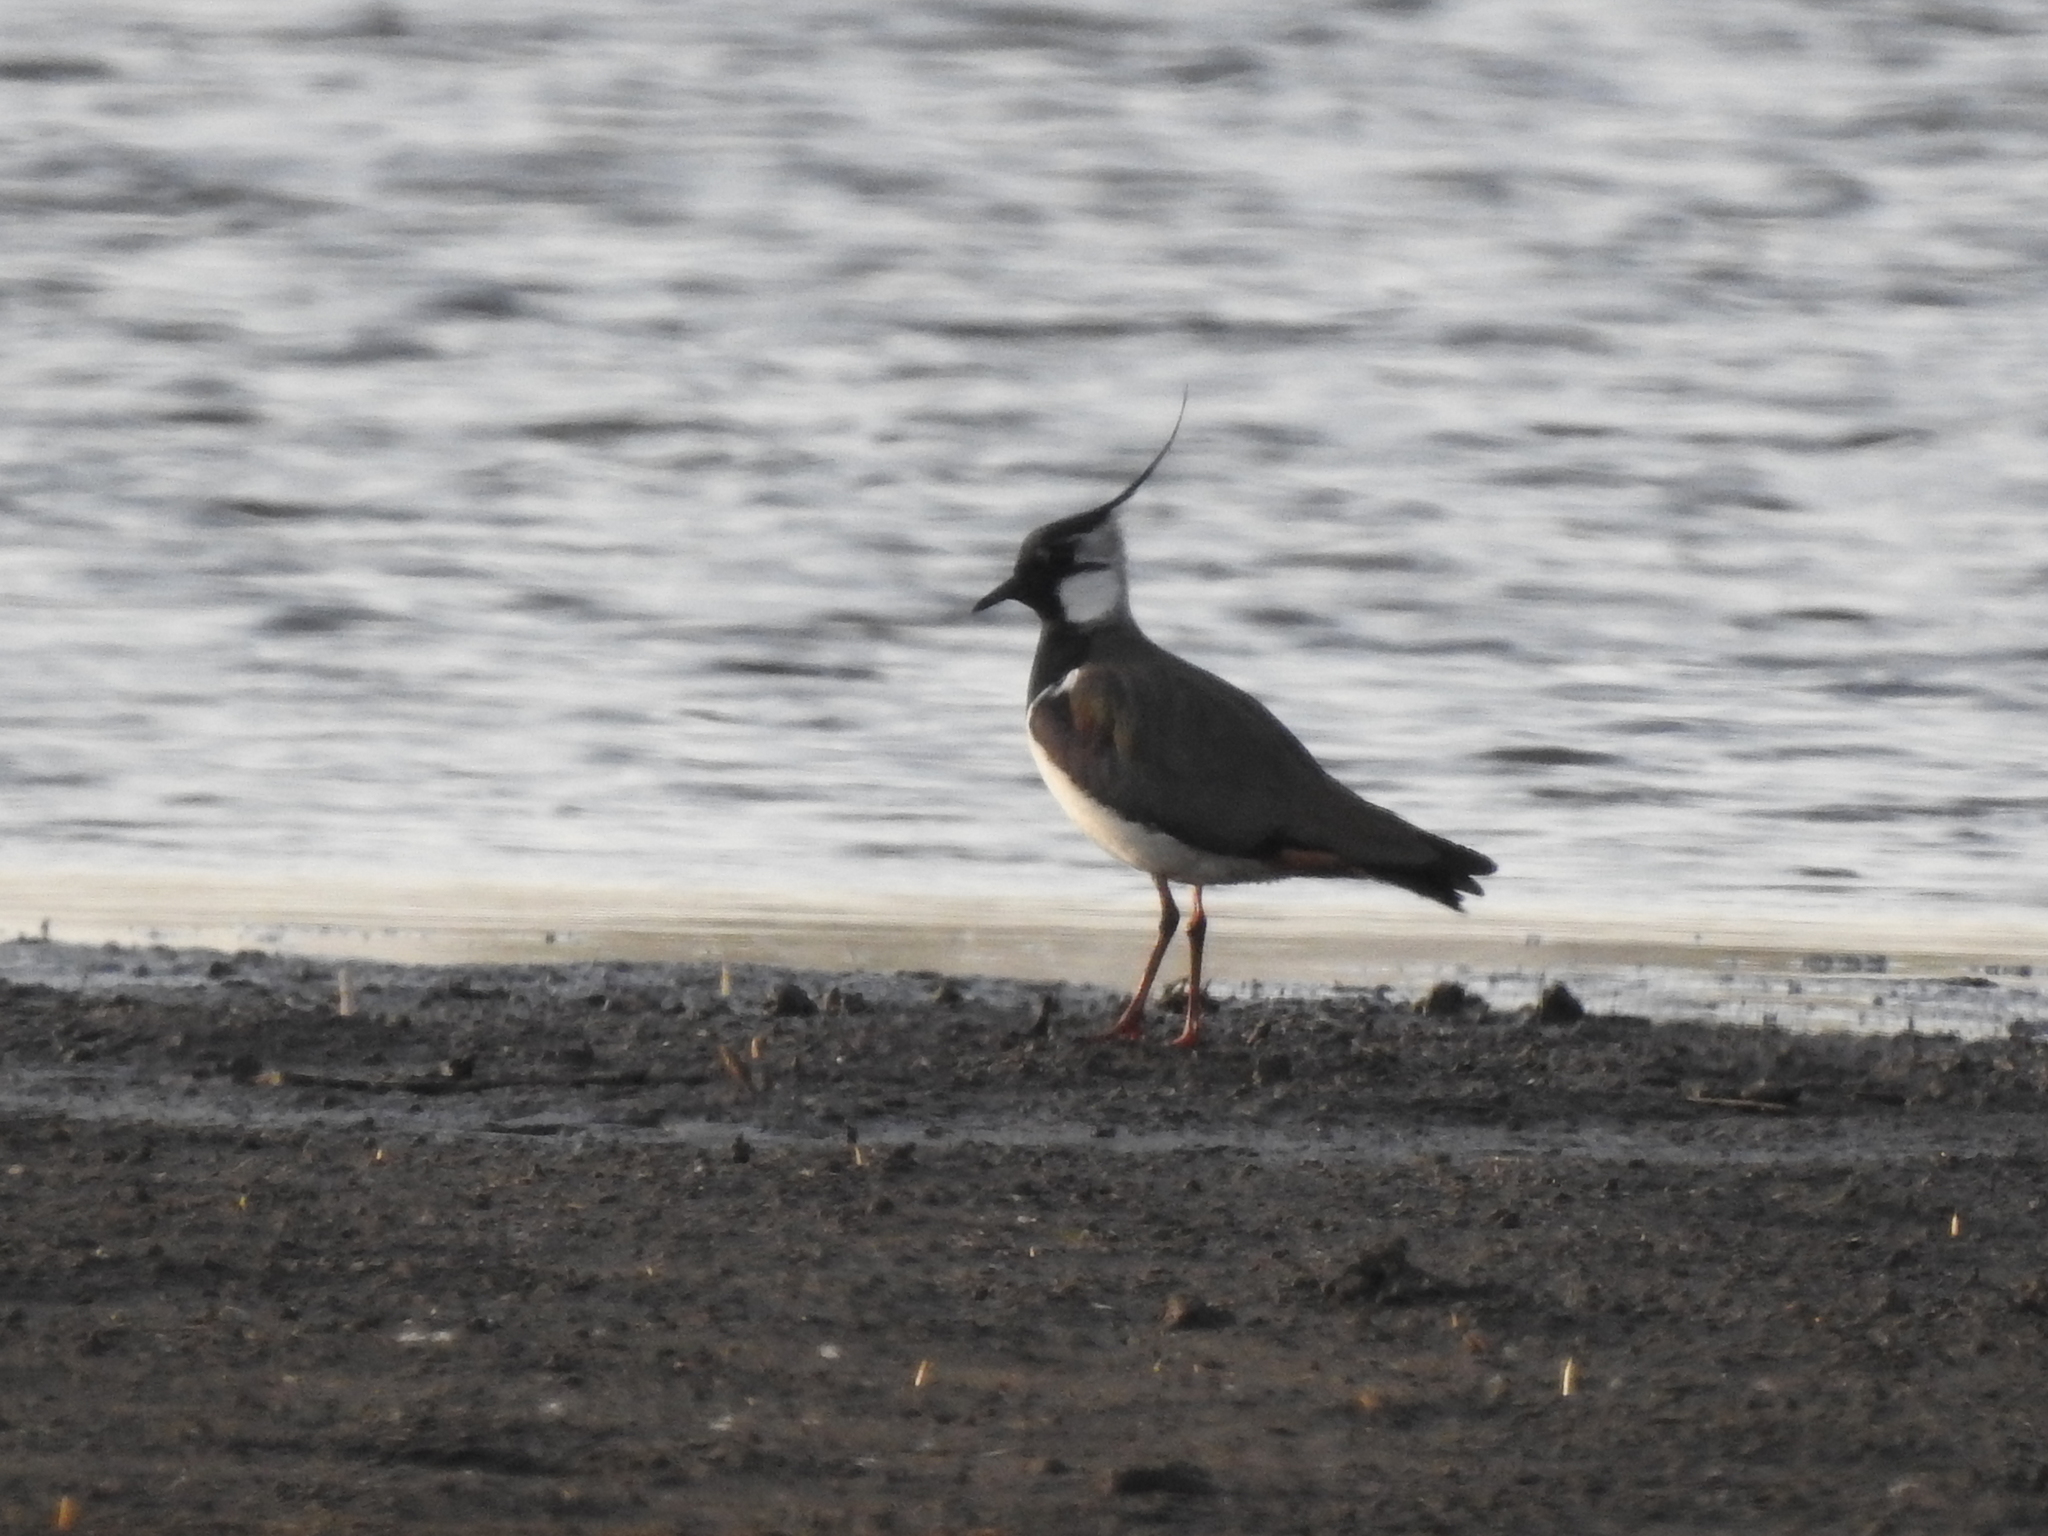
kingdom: Animalia
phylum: Chordata
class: Aves
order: Charadriiformes
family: Charadriidae
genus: Vanellus
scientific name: Vanellus vanellus
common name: Northern lapwing
